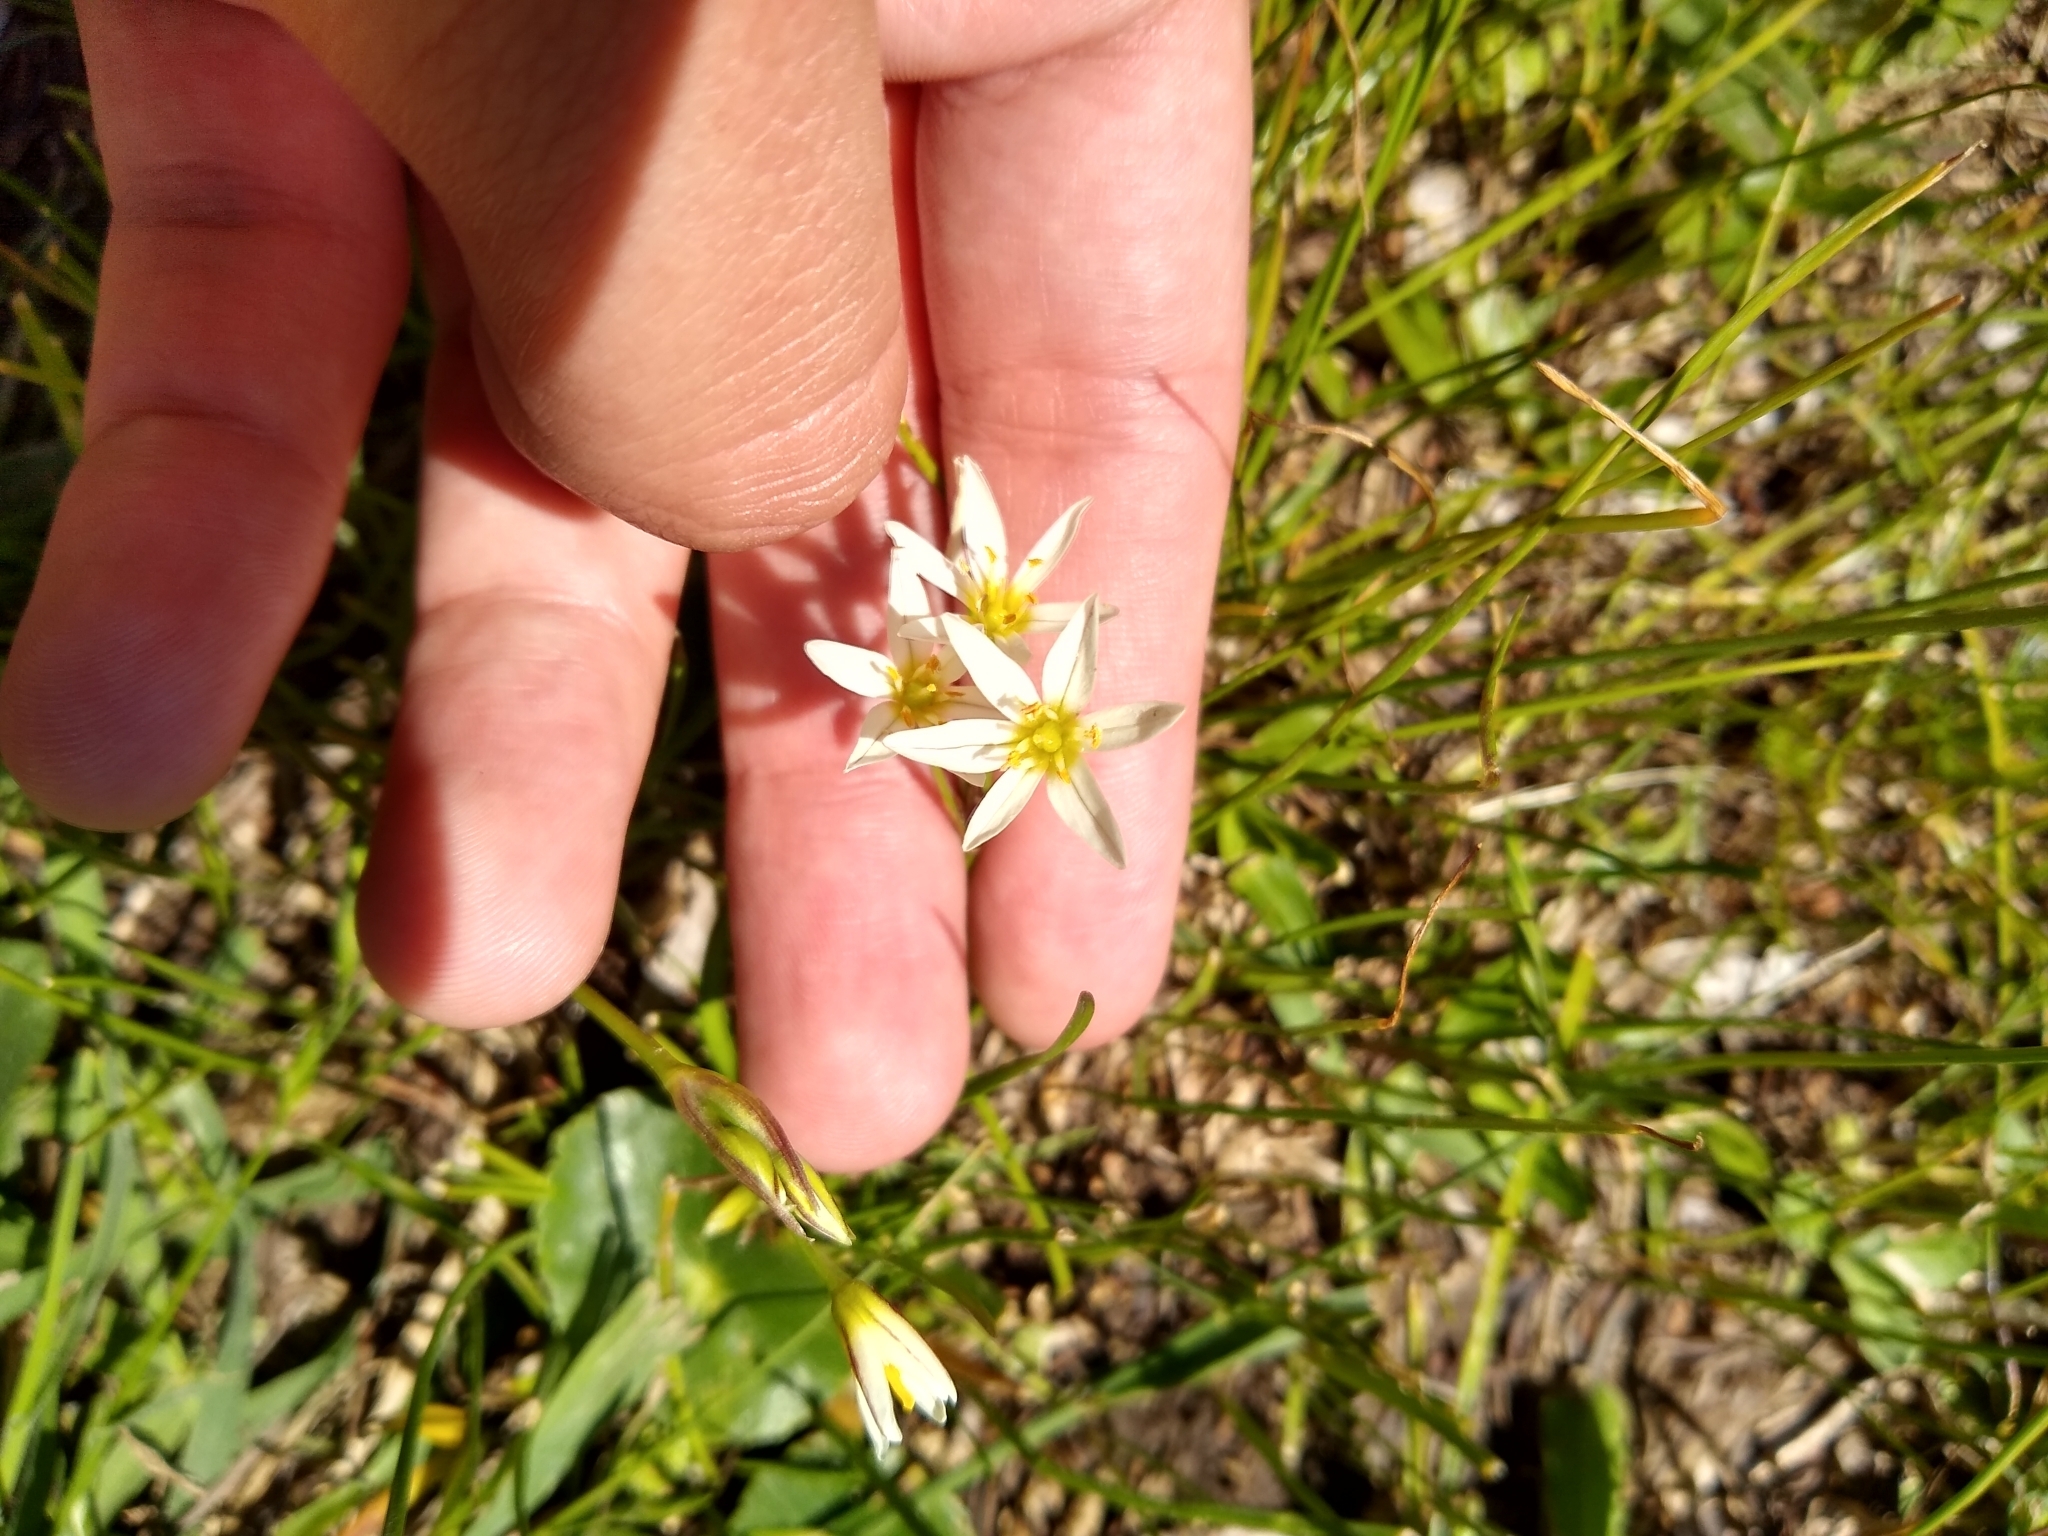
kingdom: Plantae
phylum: Tracheophyta
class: Liliopsida
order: Asparagales
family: Amaryllidaceae
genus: Nothoscordum
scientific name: Nothoscordum bonariense
